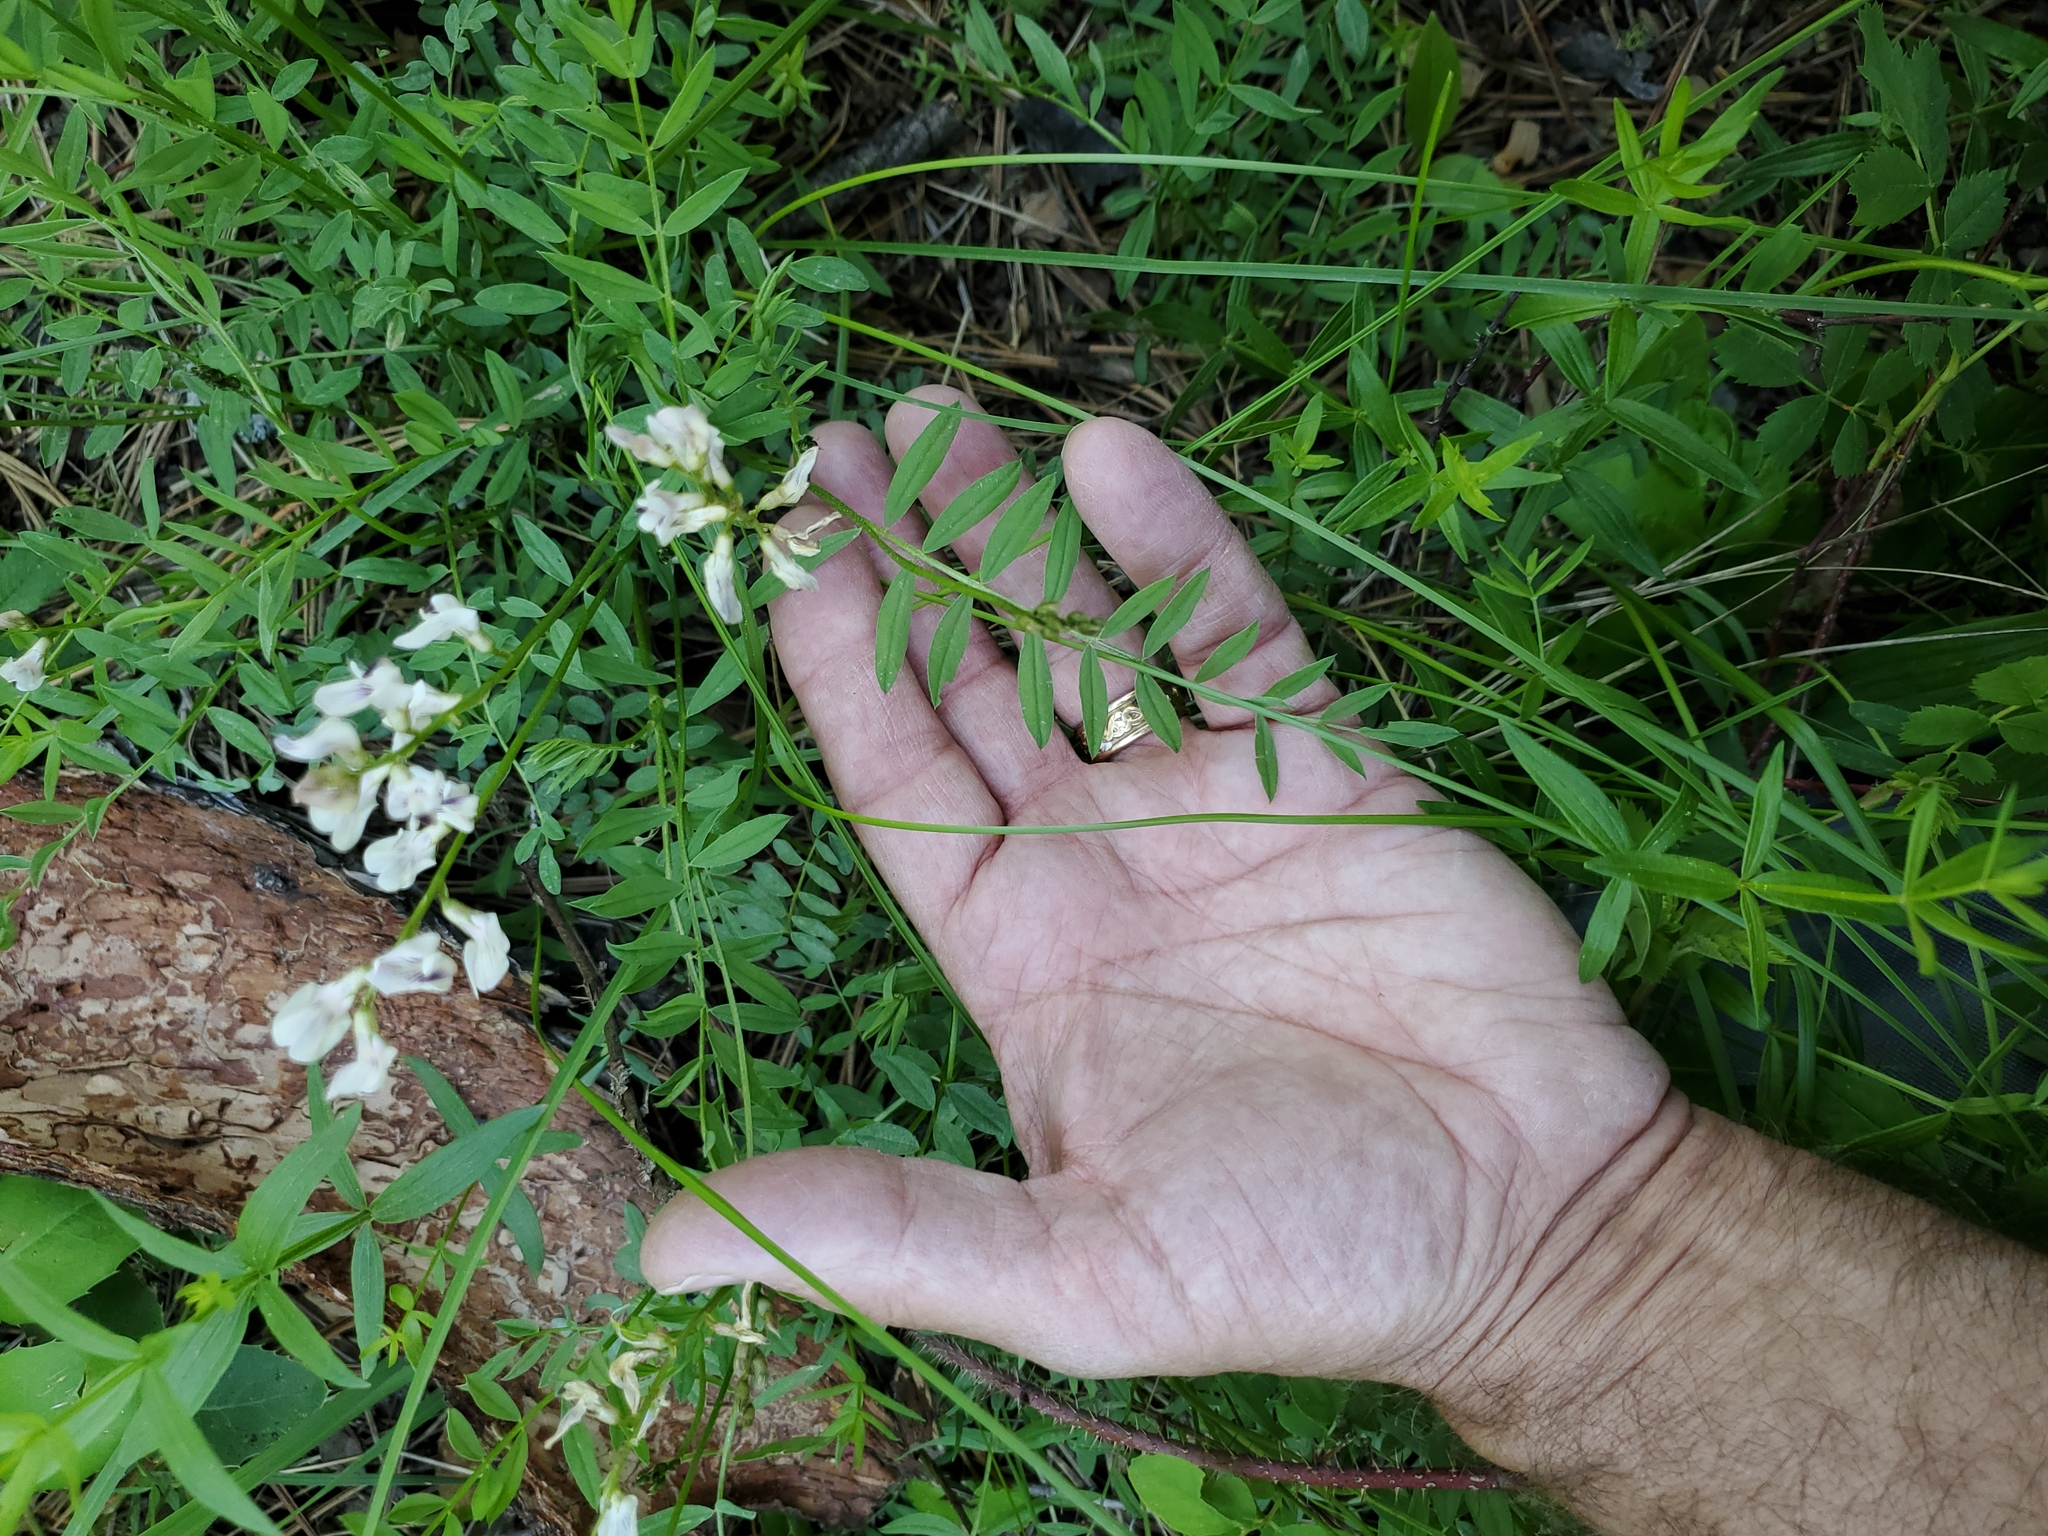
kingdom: Plantae
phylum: Tracheophyta
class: Magnoliopsida
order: Fabales
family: Fabaceae
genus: Astragalus
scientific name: Astragalus miser
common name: Timber milkvetch
